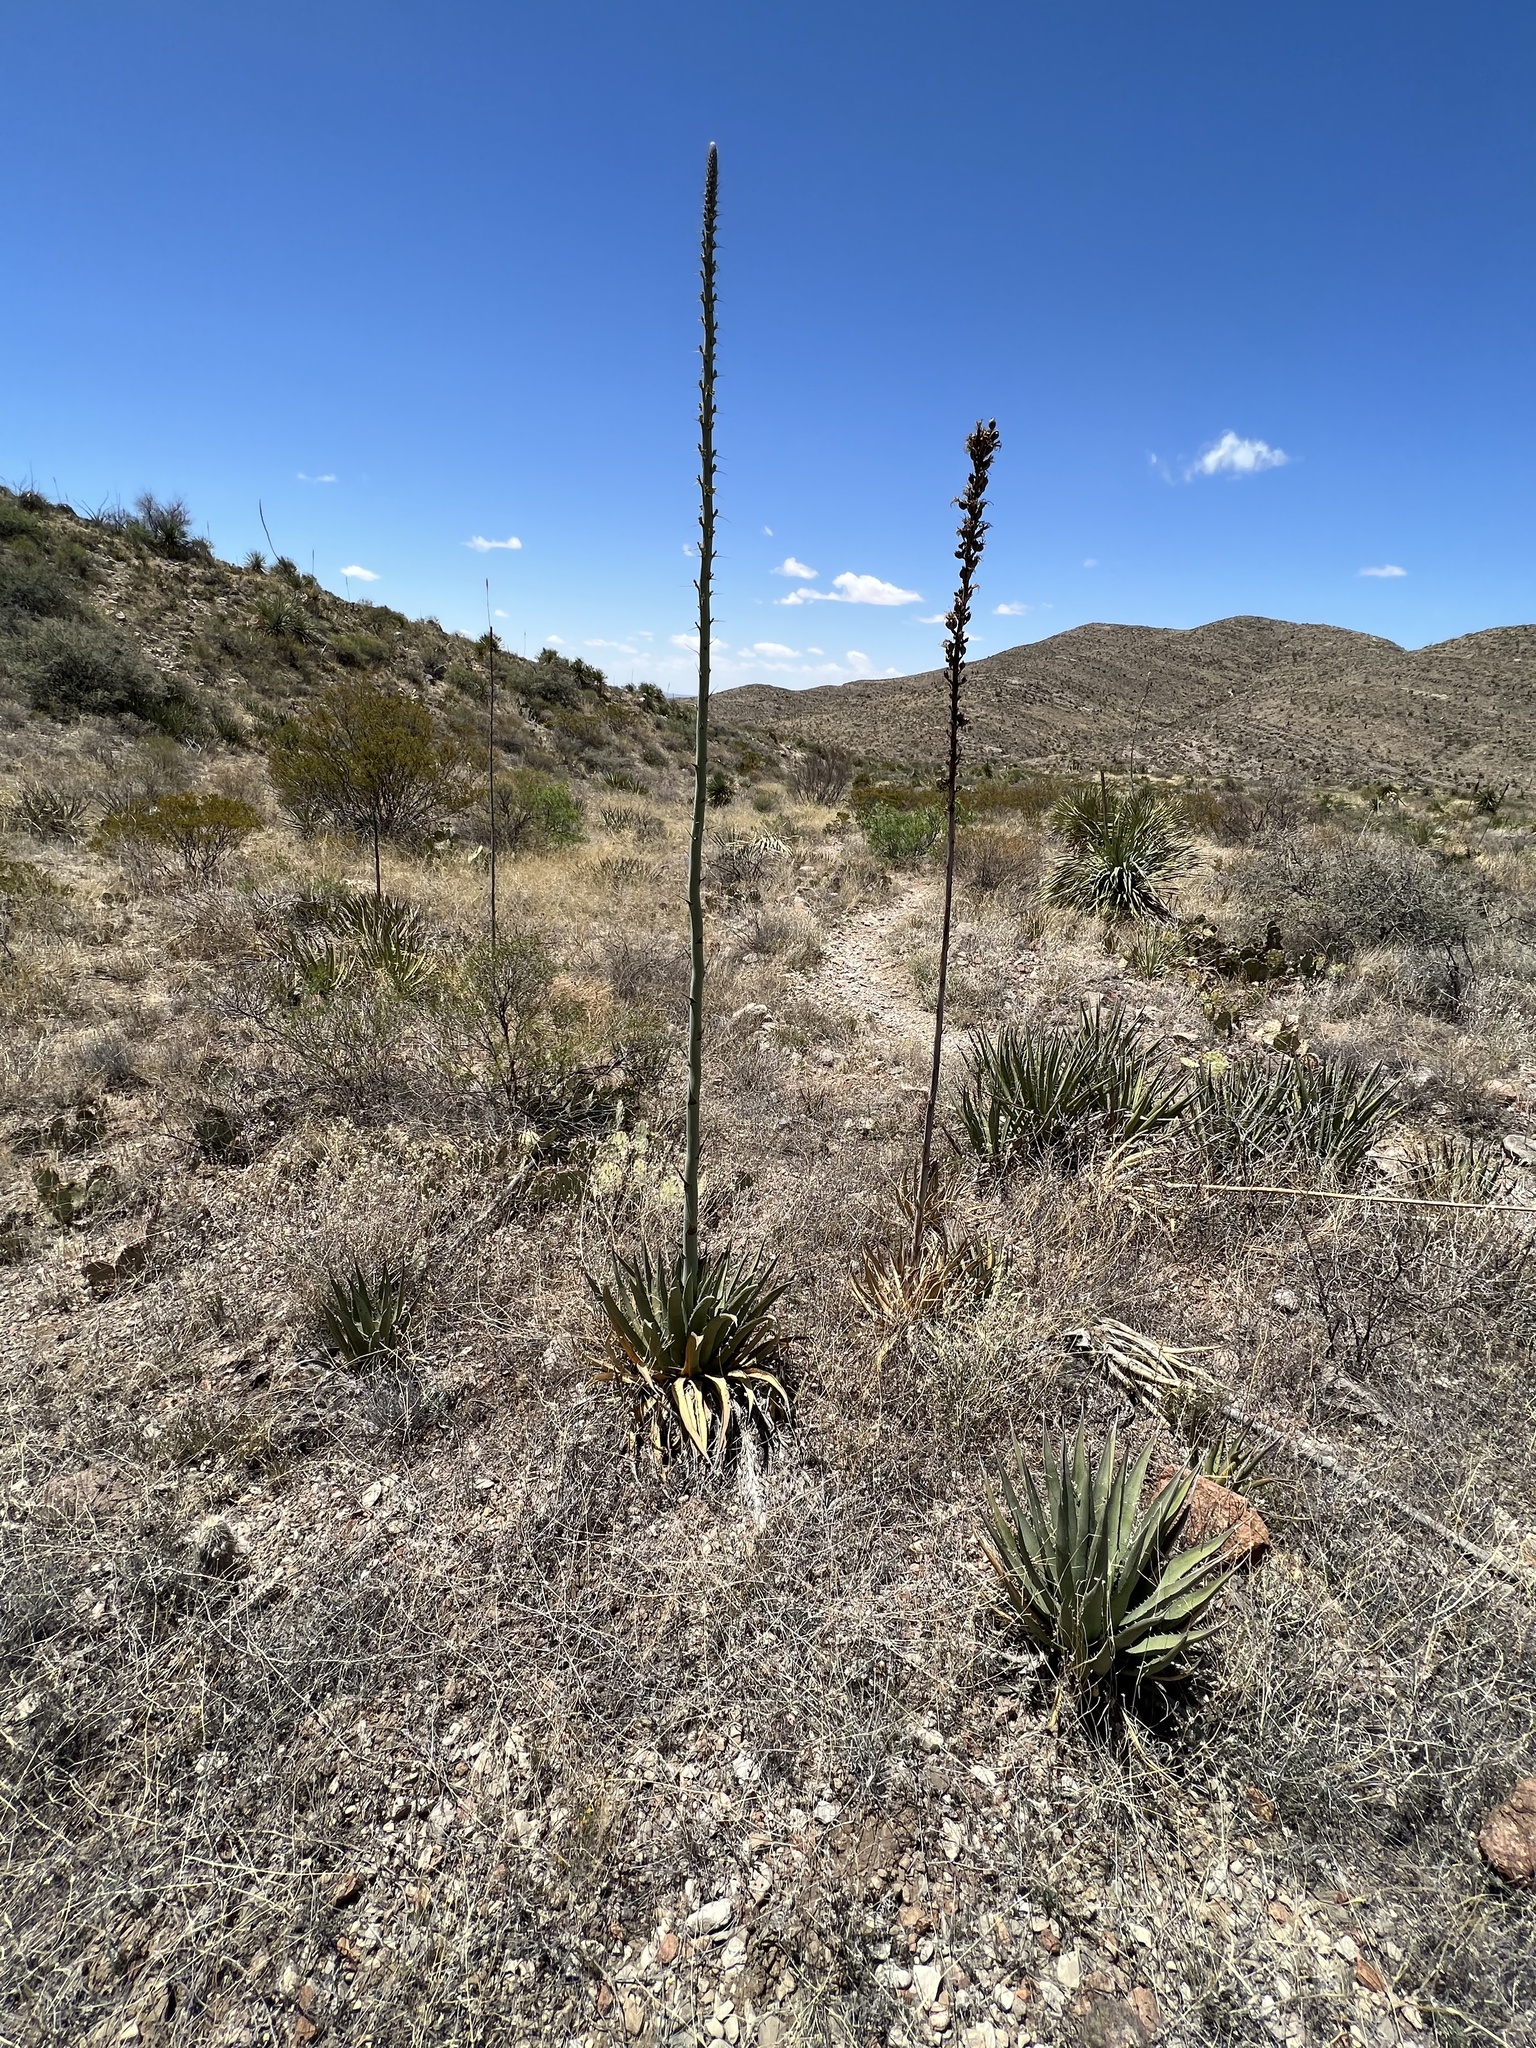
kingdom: Plantae
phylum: Tracheophyta
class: Liliopsida
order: Asparagales
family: Asparagaceae
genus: Agave
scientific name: Agave lechuguilla
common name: Lecheguilla agave
